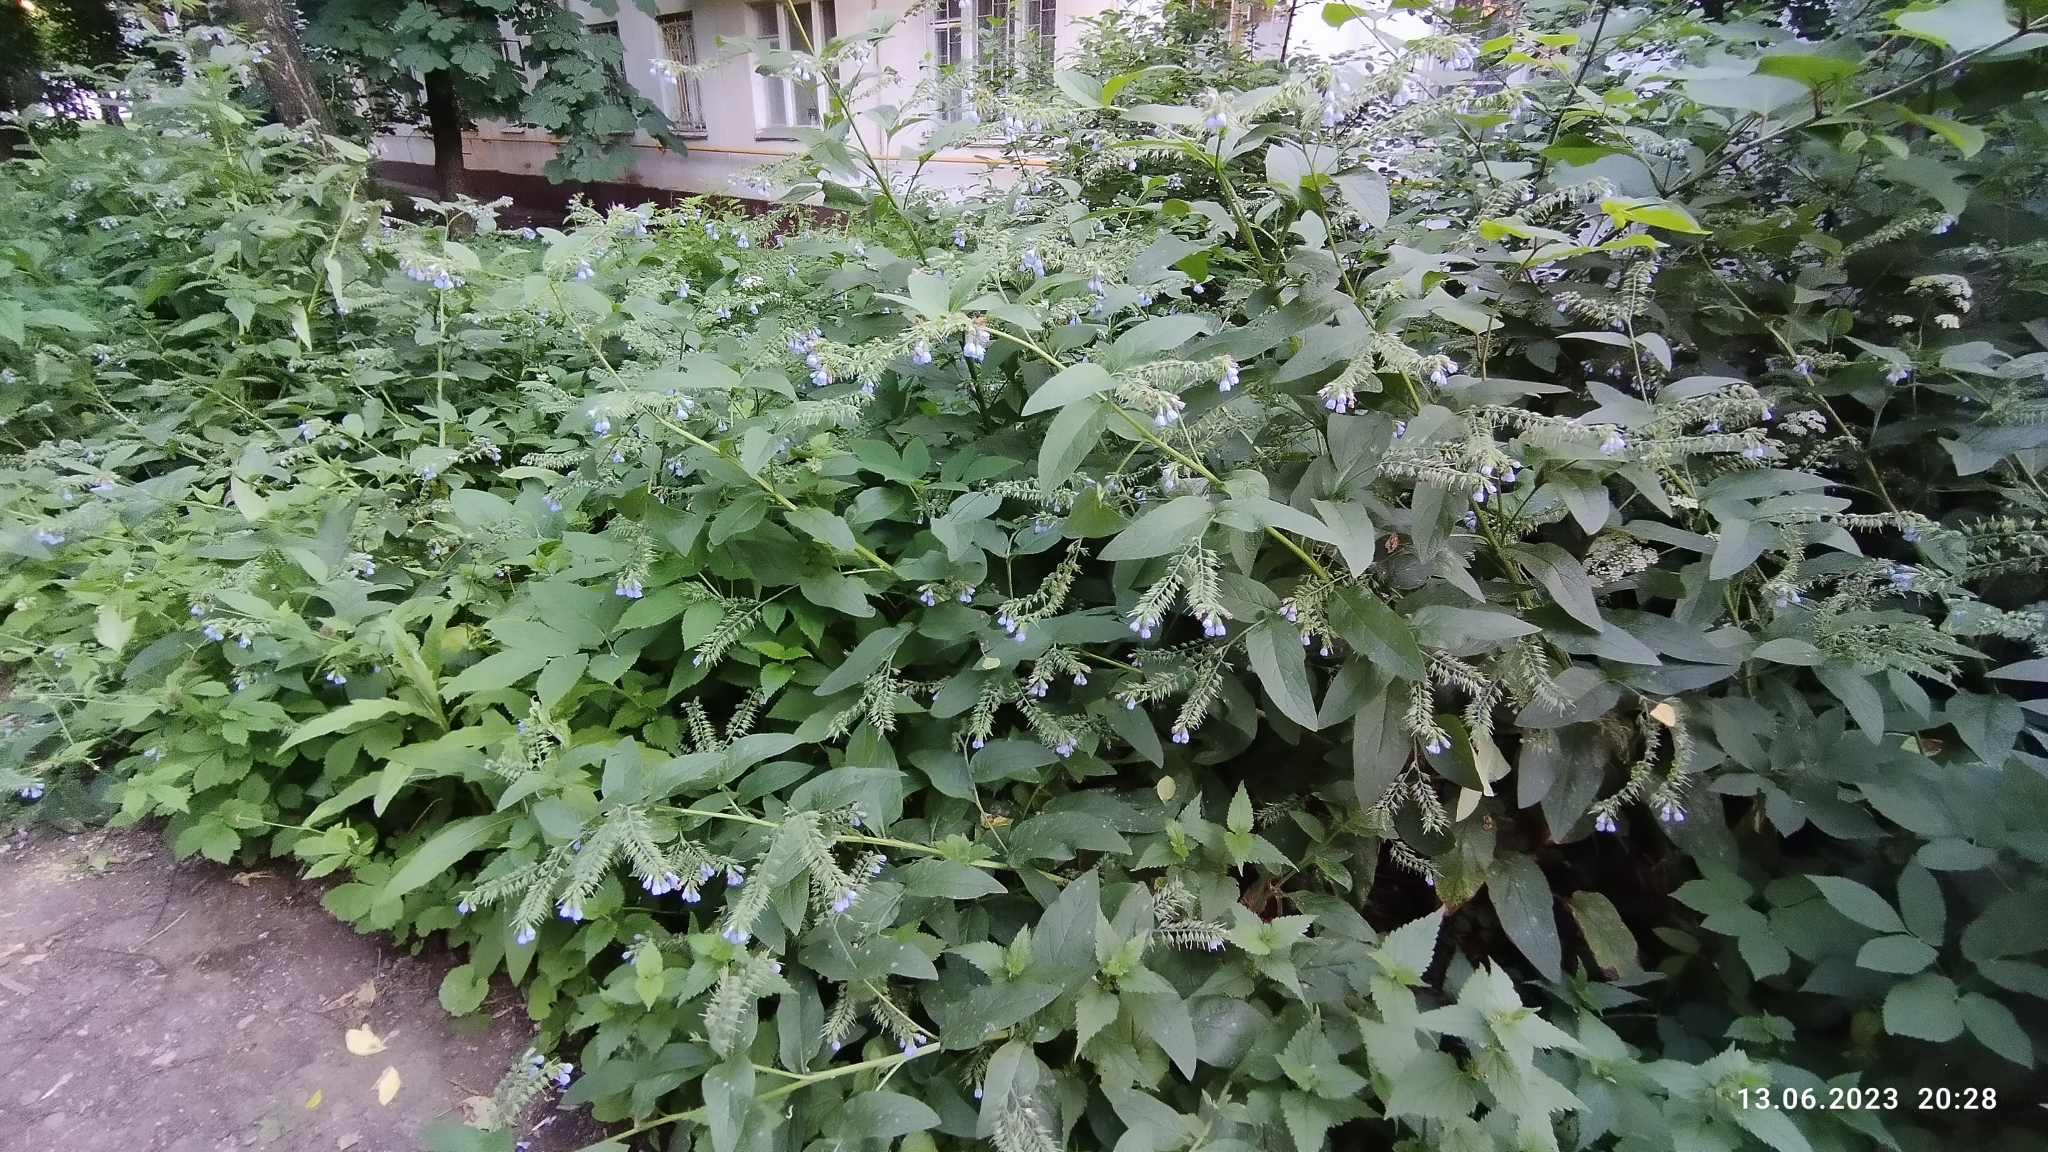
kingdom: Plantae
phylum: Tracheophyta
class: Magnoliopsida
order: Boraginales
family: Boraginaceae
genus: Symphytum
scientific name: Symphytum caucasicum
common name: Caucasian comfrey
